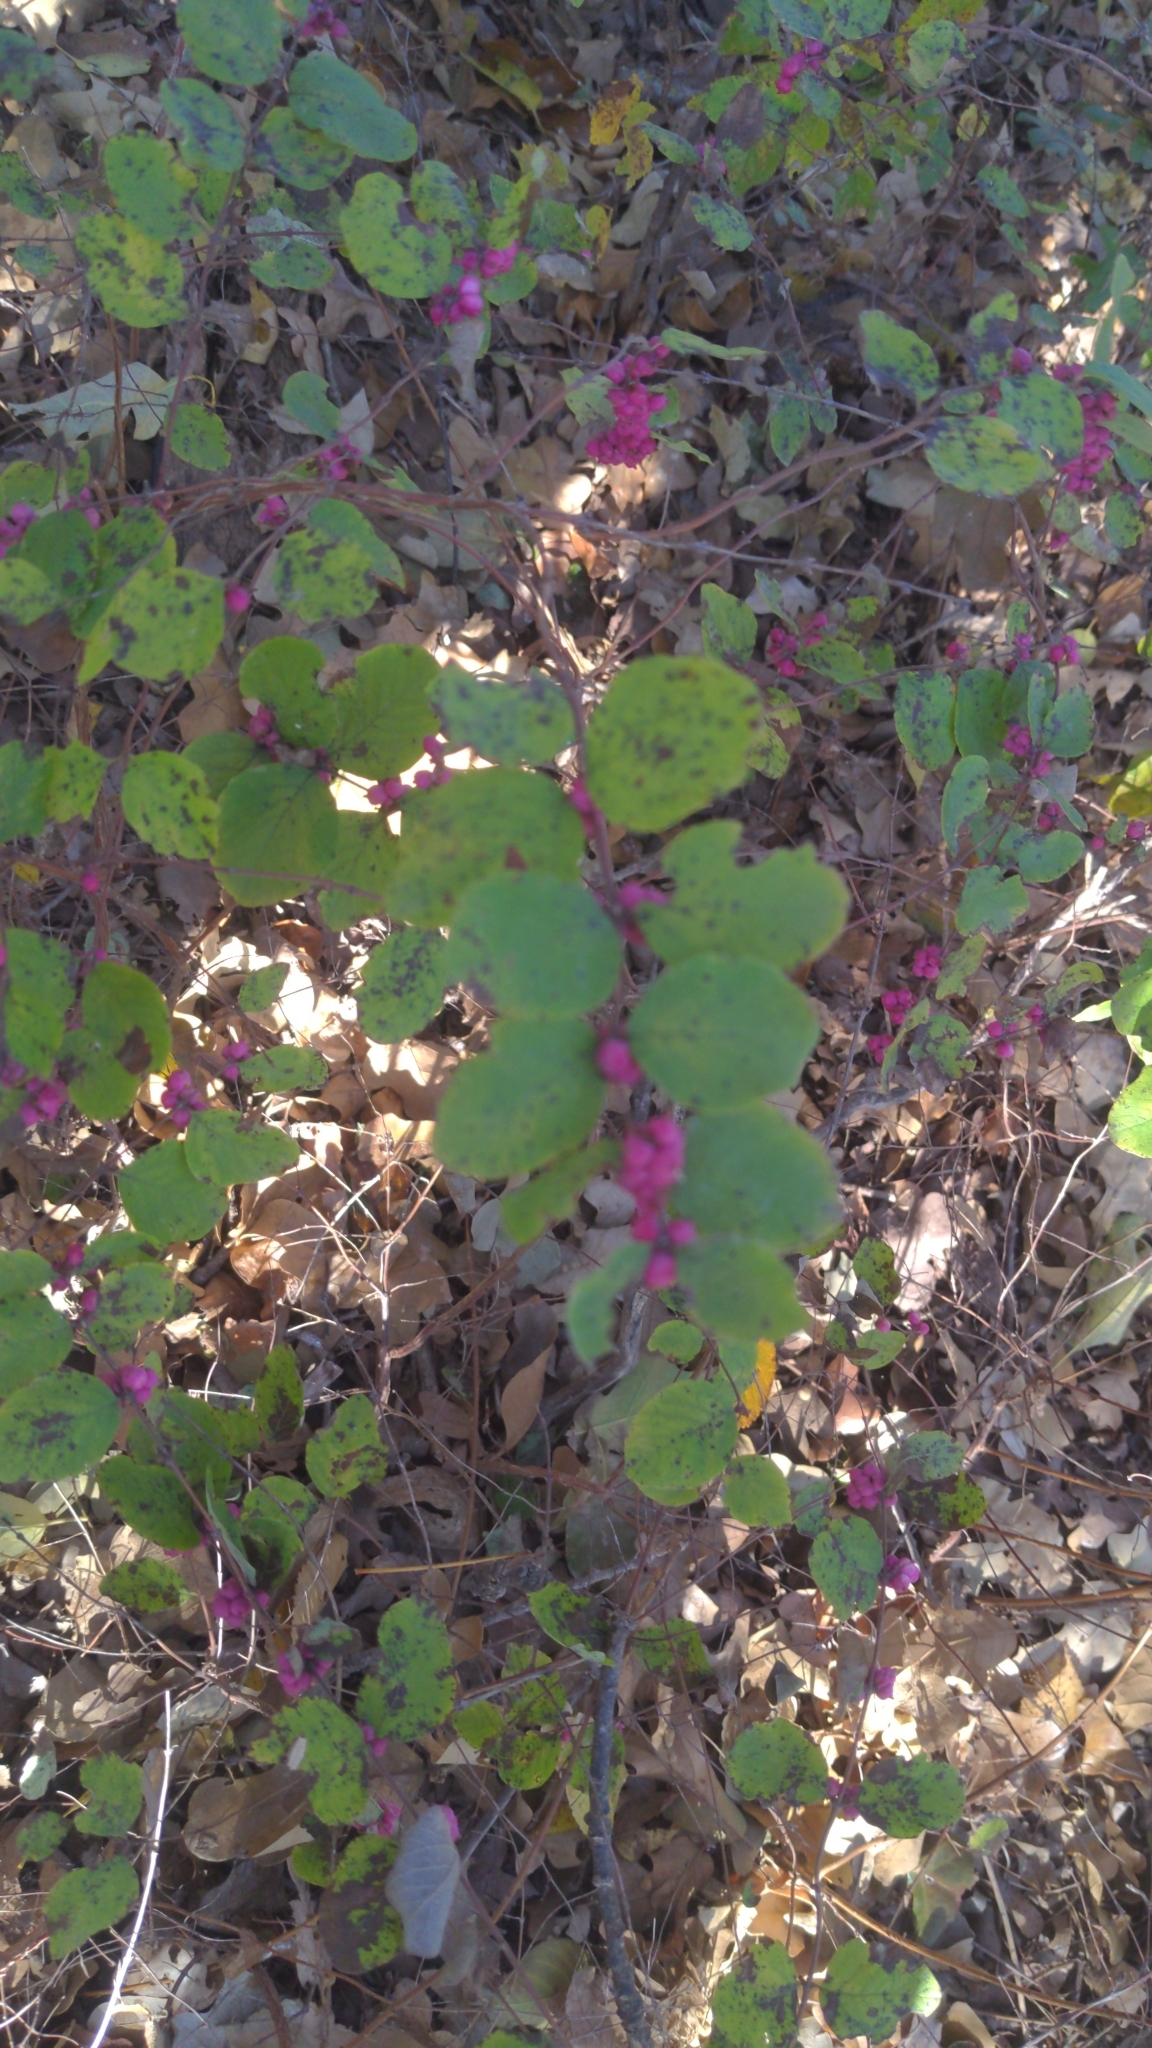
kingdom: Plantae
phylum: Tracheophyta
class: Magnoliopsida
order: Dipsacales
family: Caprifoliaceae
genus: Symphoricarpos
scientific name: Symphoricarpos orbiculatus
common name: Coralberry
